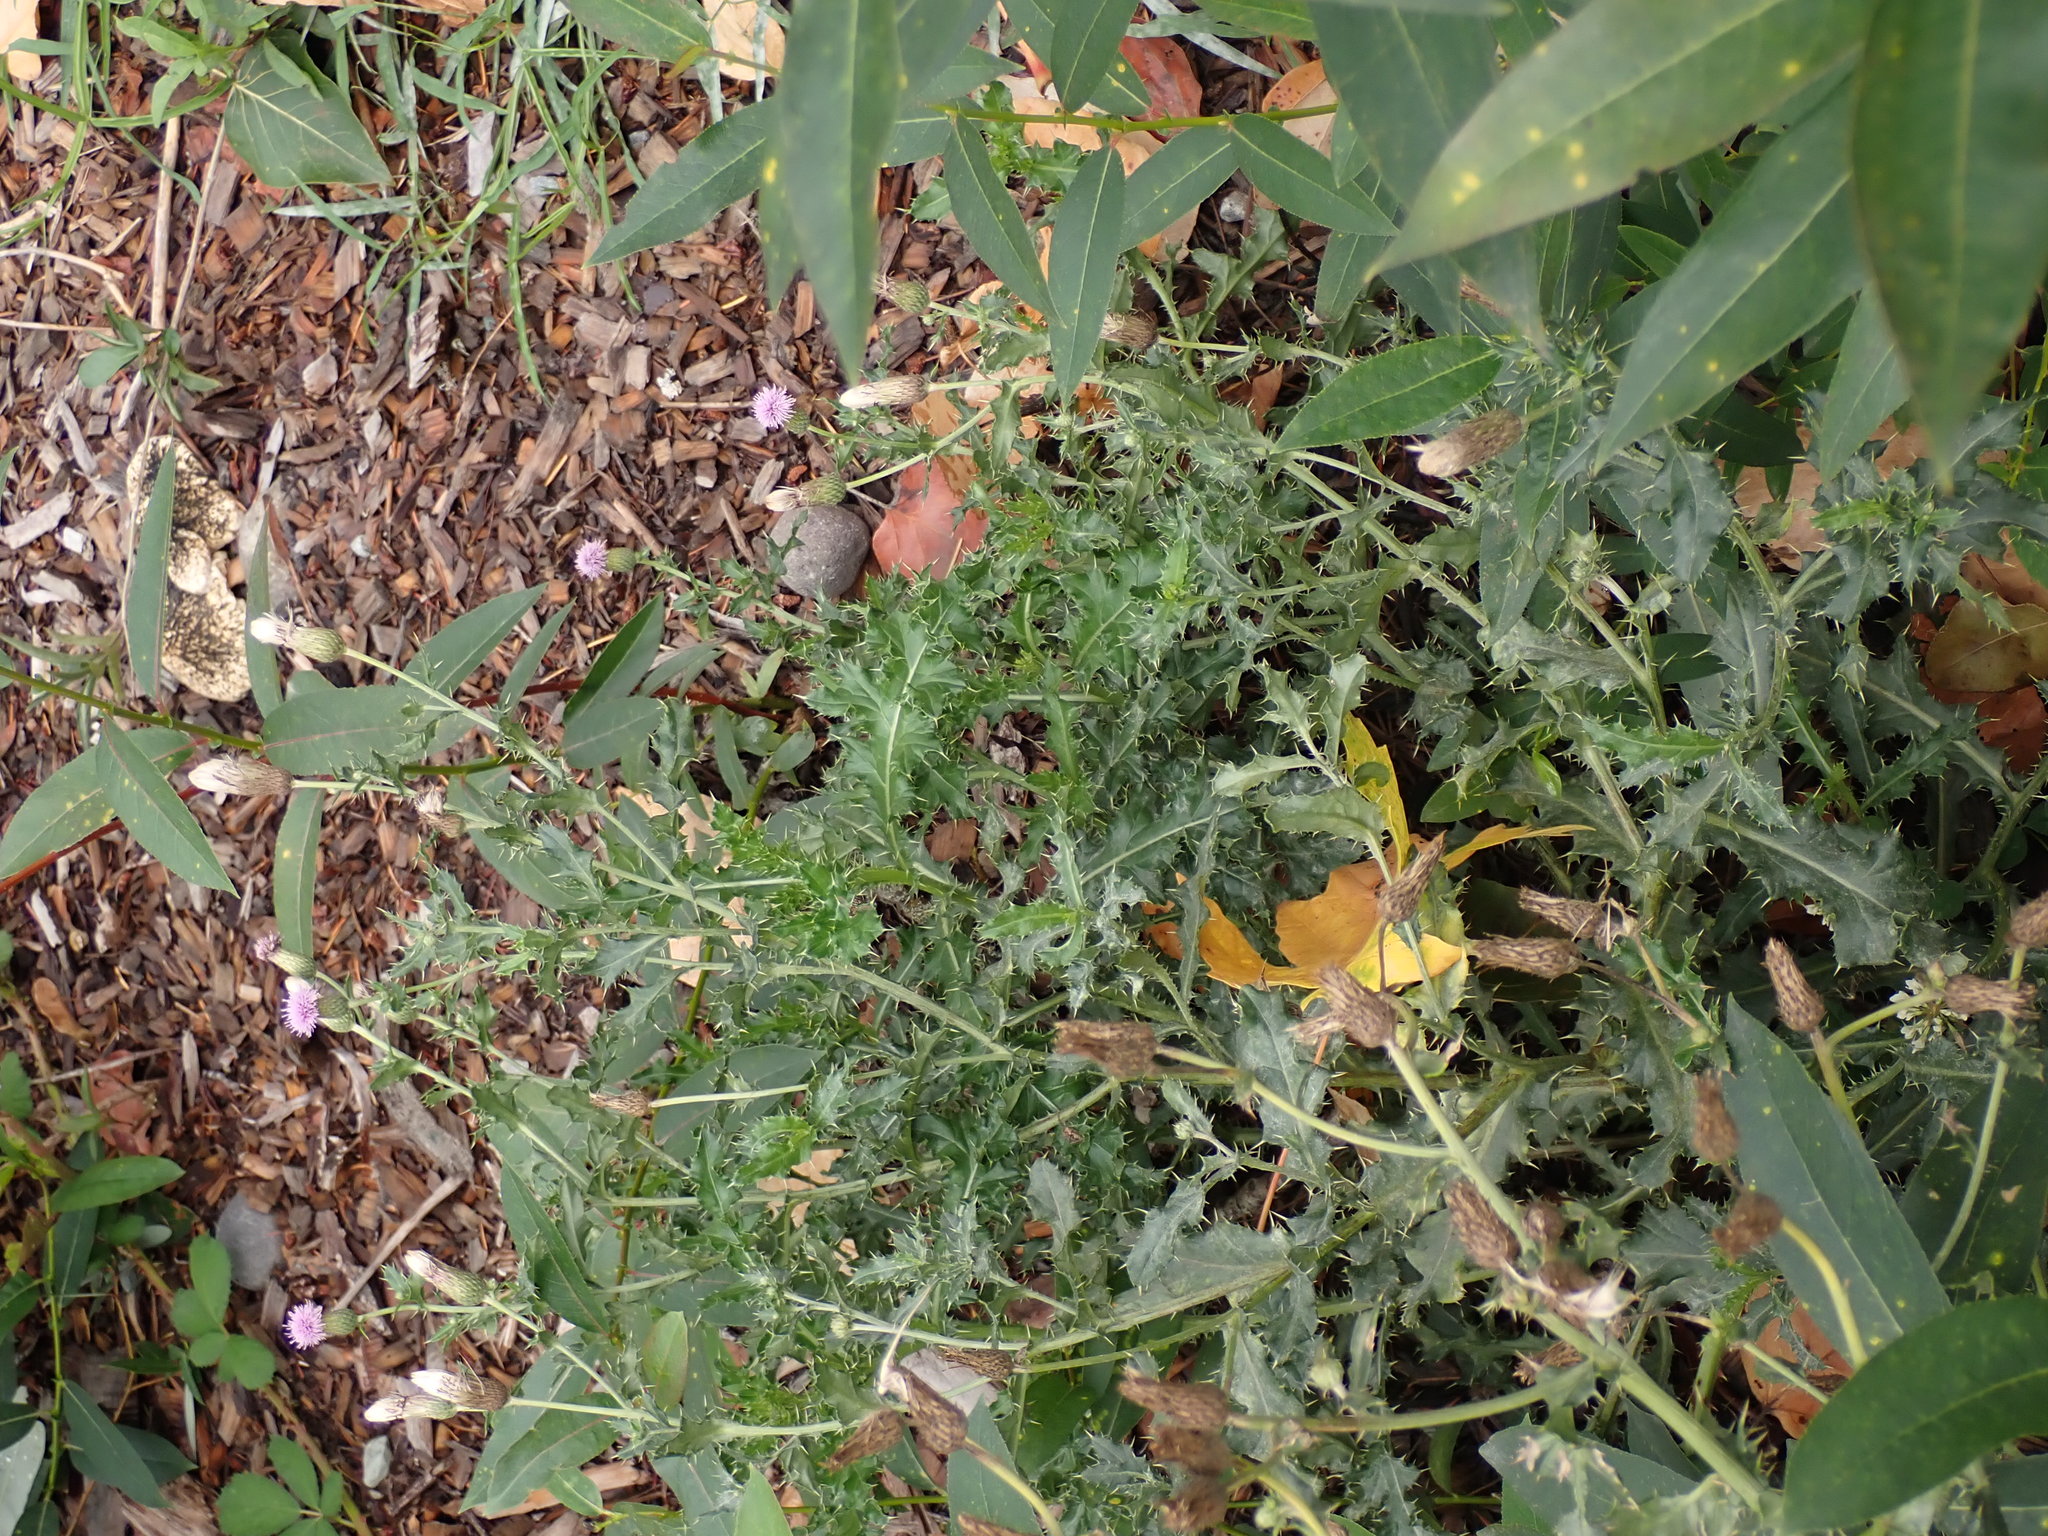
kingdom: Plantae
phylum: Tracheophyta
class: Magnoliopsida
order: Asterales
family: Asteraceae
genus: Cirsium
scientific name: Cirsium arvense
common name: Creeping thistle
